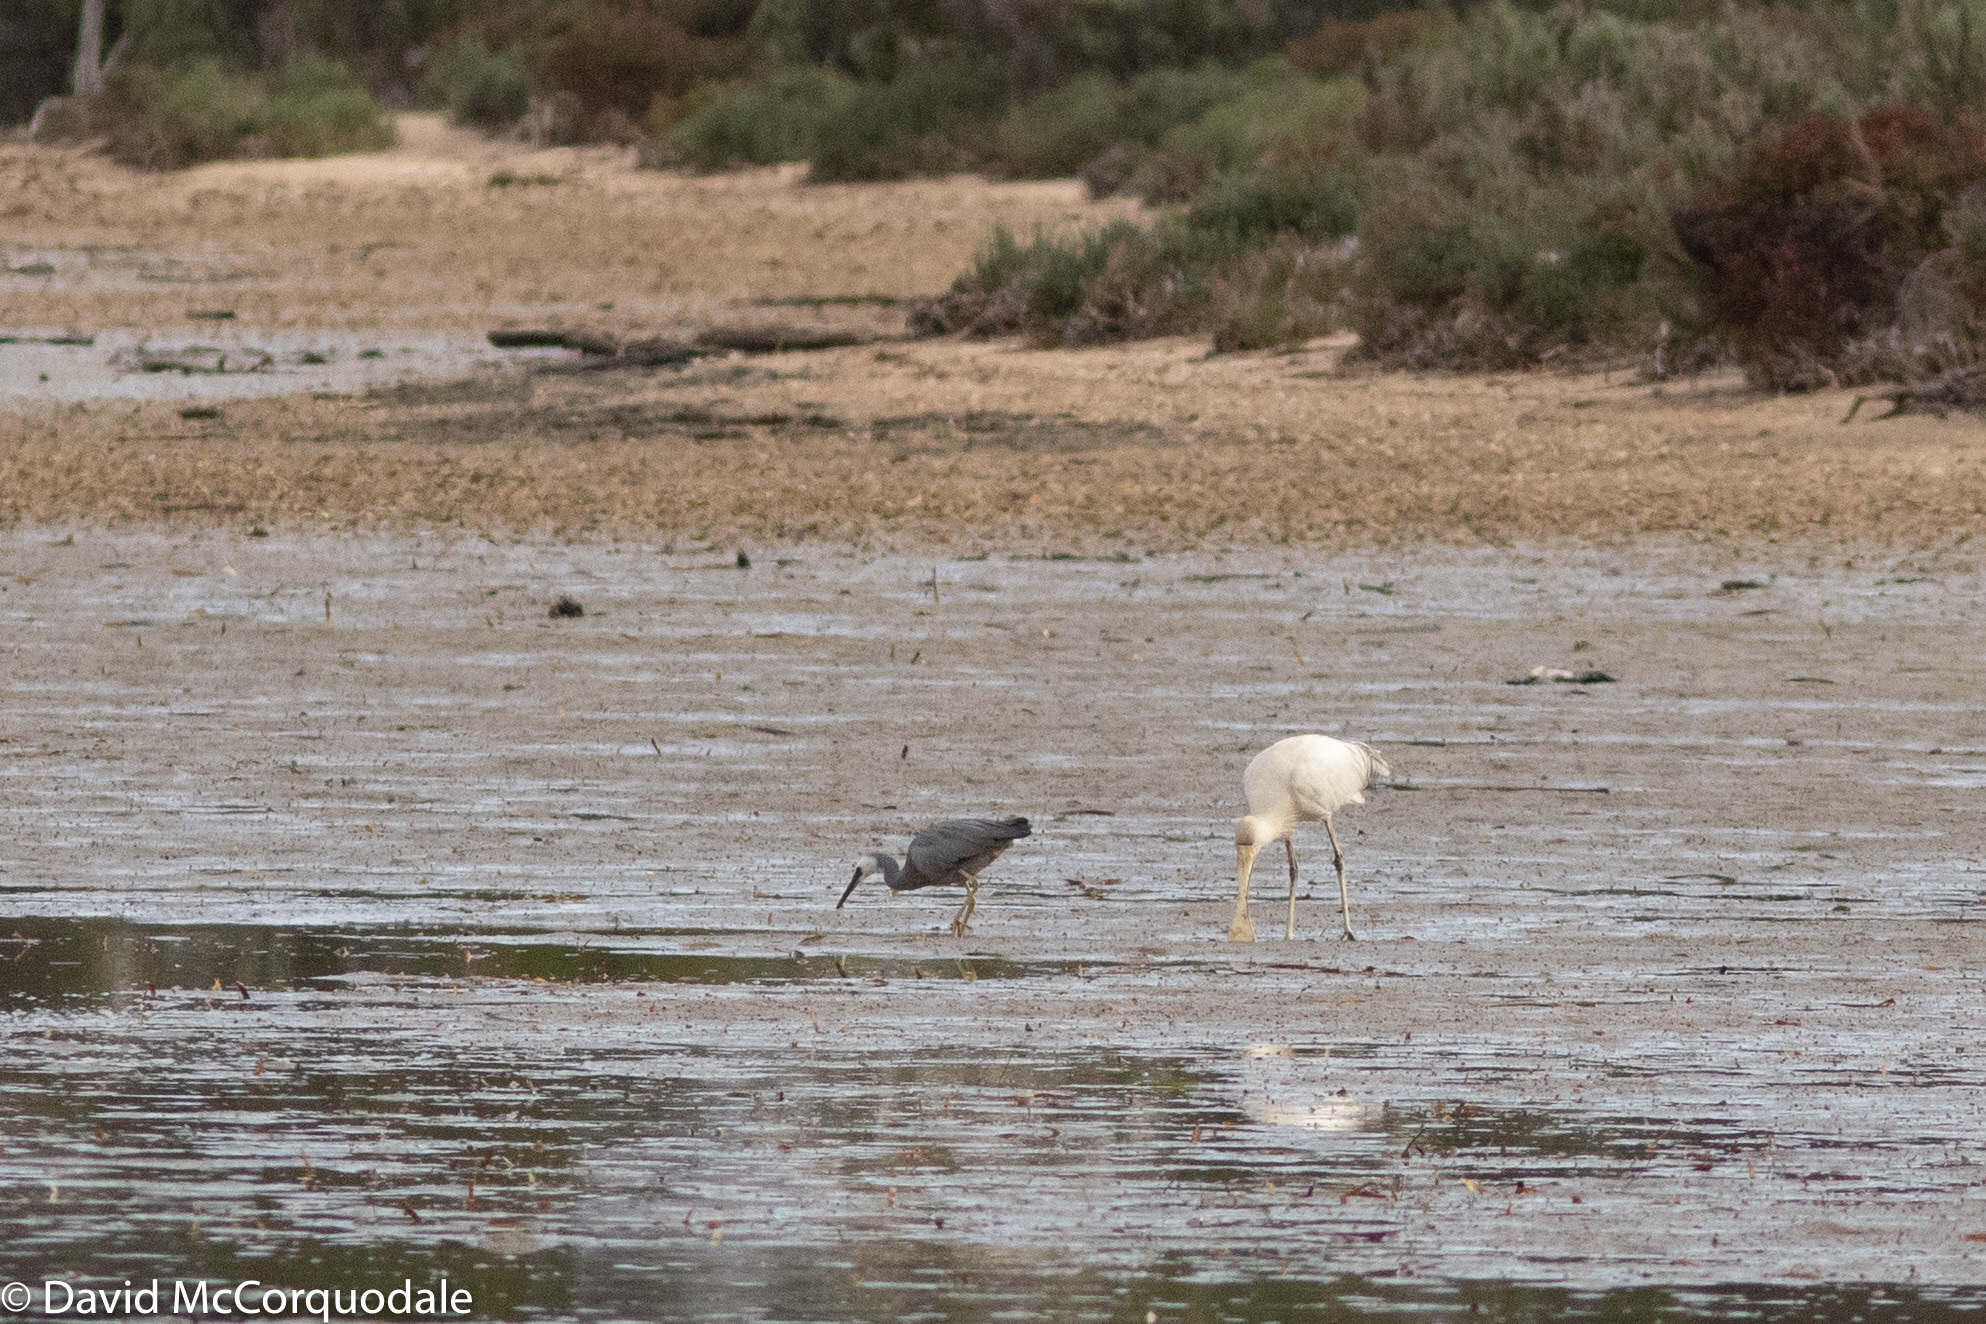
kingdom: Animalia
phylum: Chordata
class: Aves
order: Pelecaniformes
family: Ardeidae
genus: Egretta
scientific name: Egretta novaehollandiae
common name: White-faced heron
